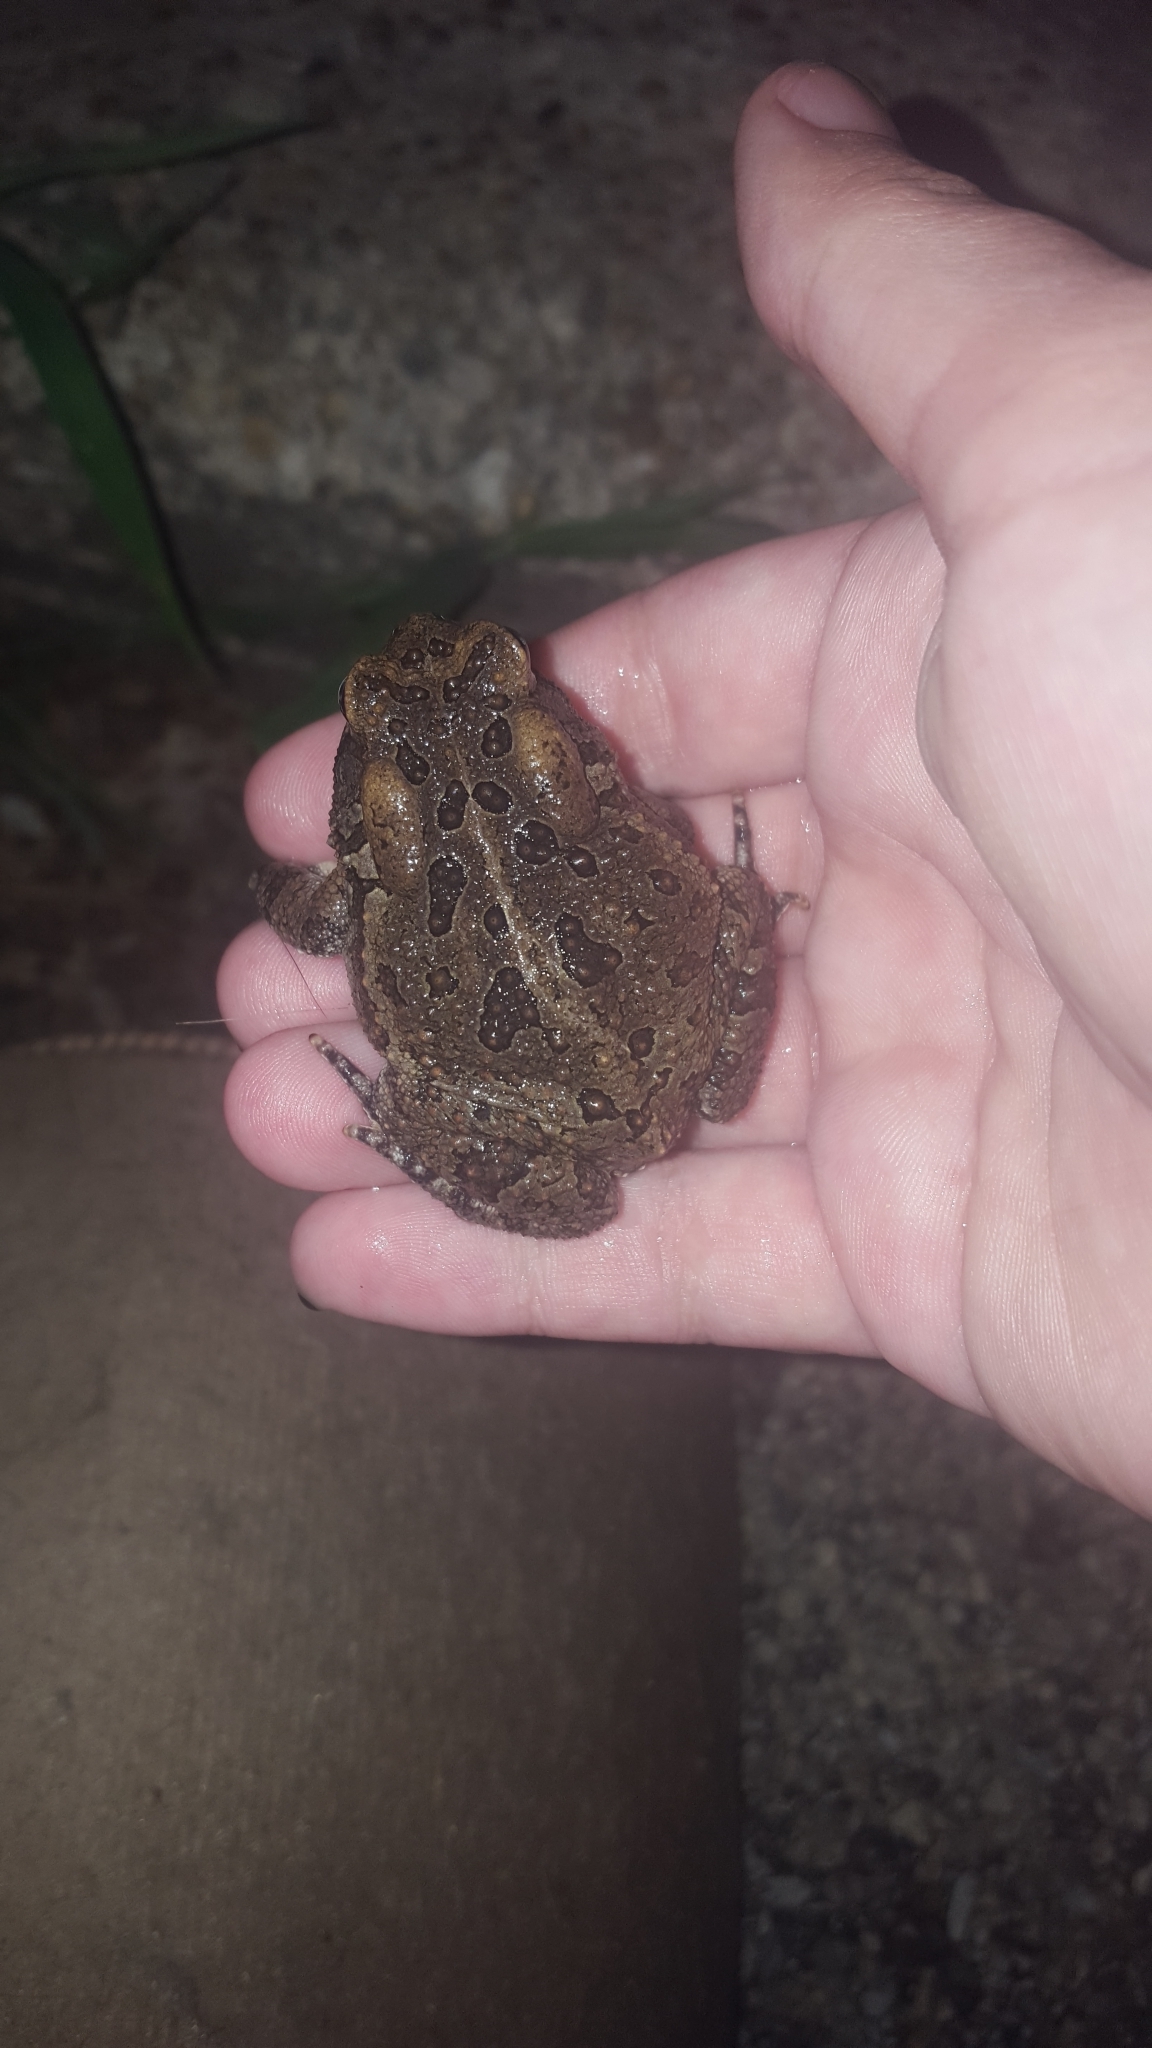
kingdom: Animalia
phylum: Chordata
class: Amphibia
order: Anura
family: Bufonidae
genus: Anaxyrus
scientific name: Anaxyrus fowleri
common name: Fowler's toad
